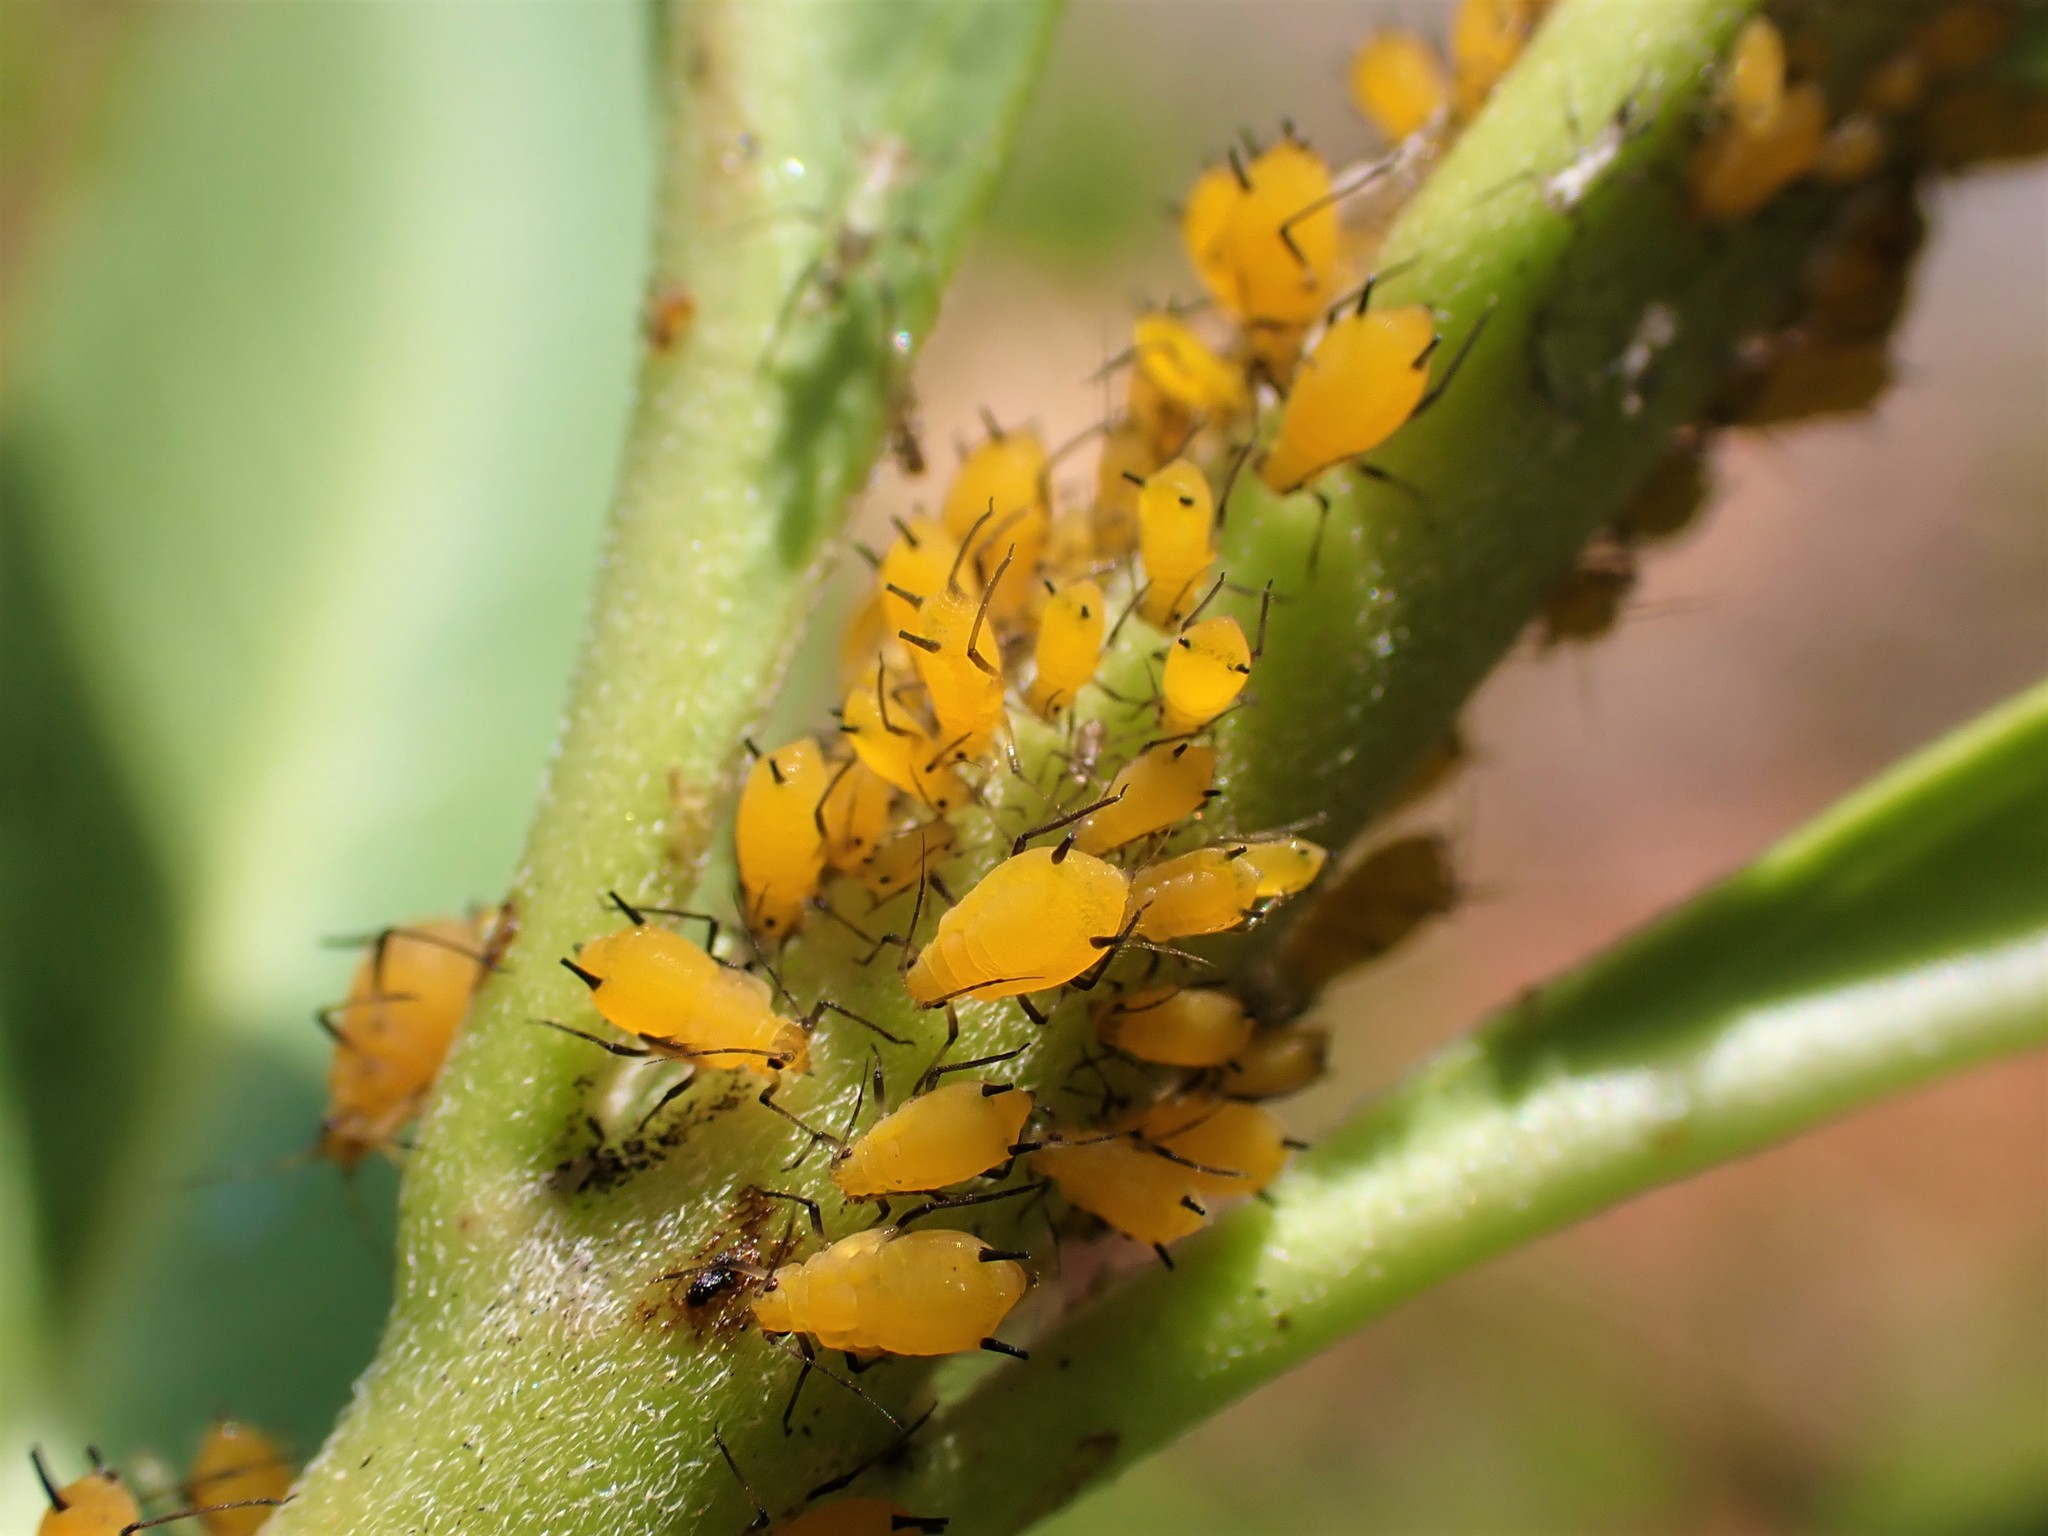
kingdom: Animalia
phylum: Arthropoda
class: Insecta
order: Hemiptera
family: Aphididae
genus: Aphis
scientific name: Aphis nerii
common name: Oleander aphid
